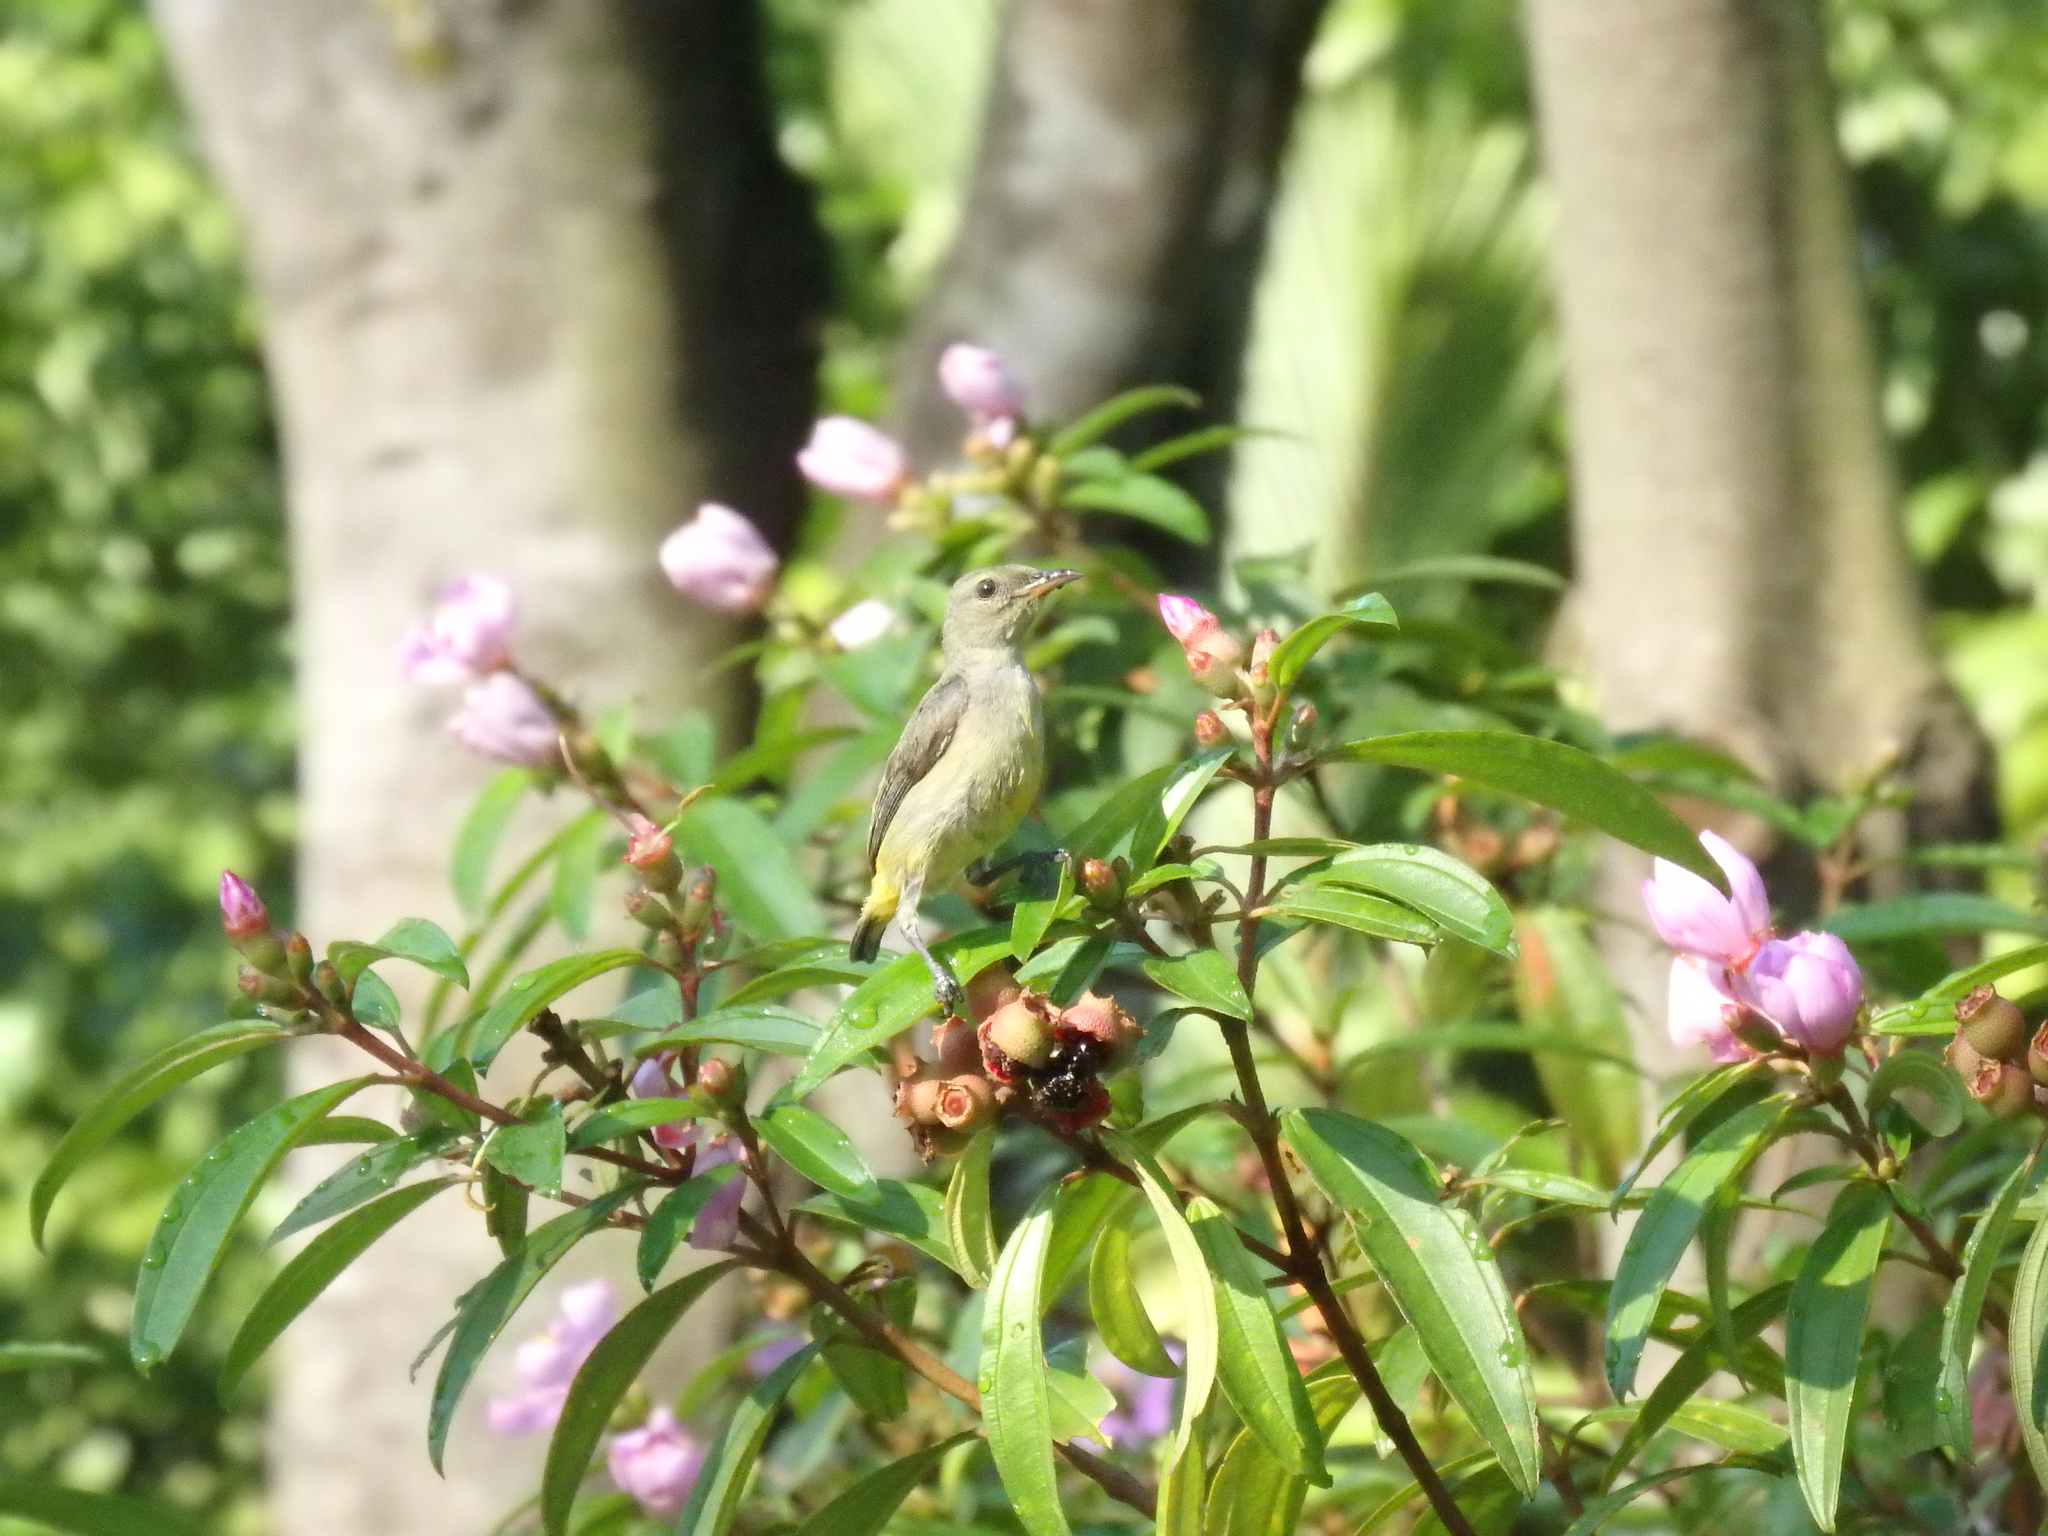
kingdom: Animalia
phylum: Chordata
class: Aves
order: Passeriformes
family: Dicaeidae
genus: Dicaeum
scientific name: Dicaeum trigonostigma
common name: Orange-bellied flowerpecker
